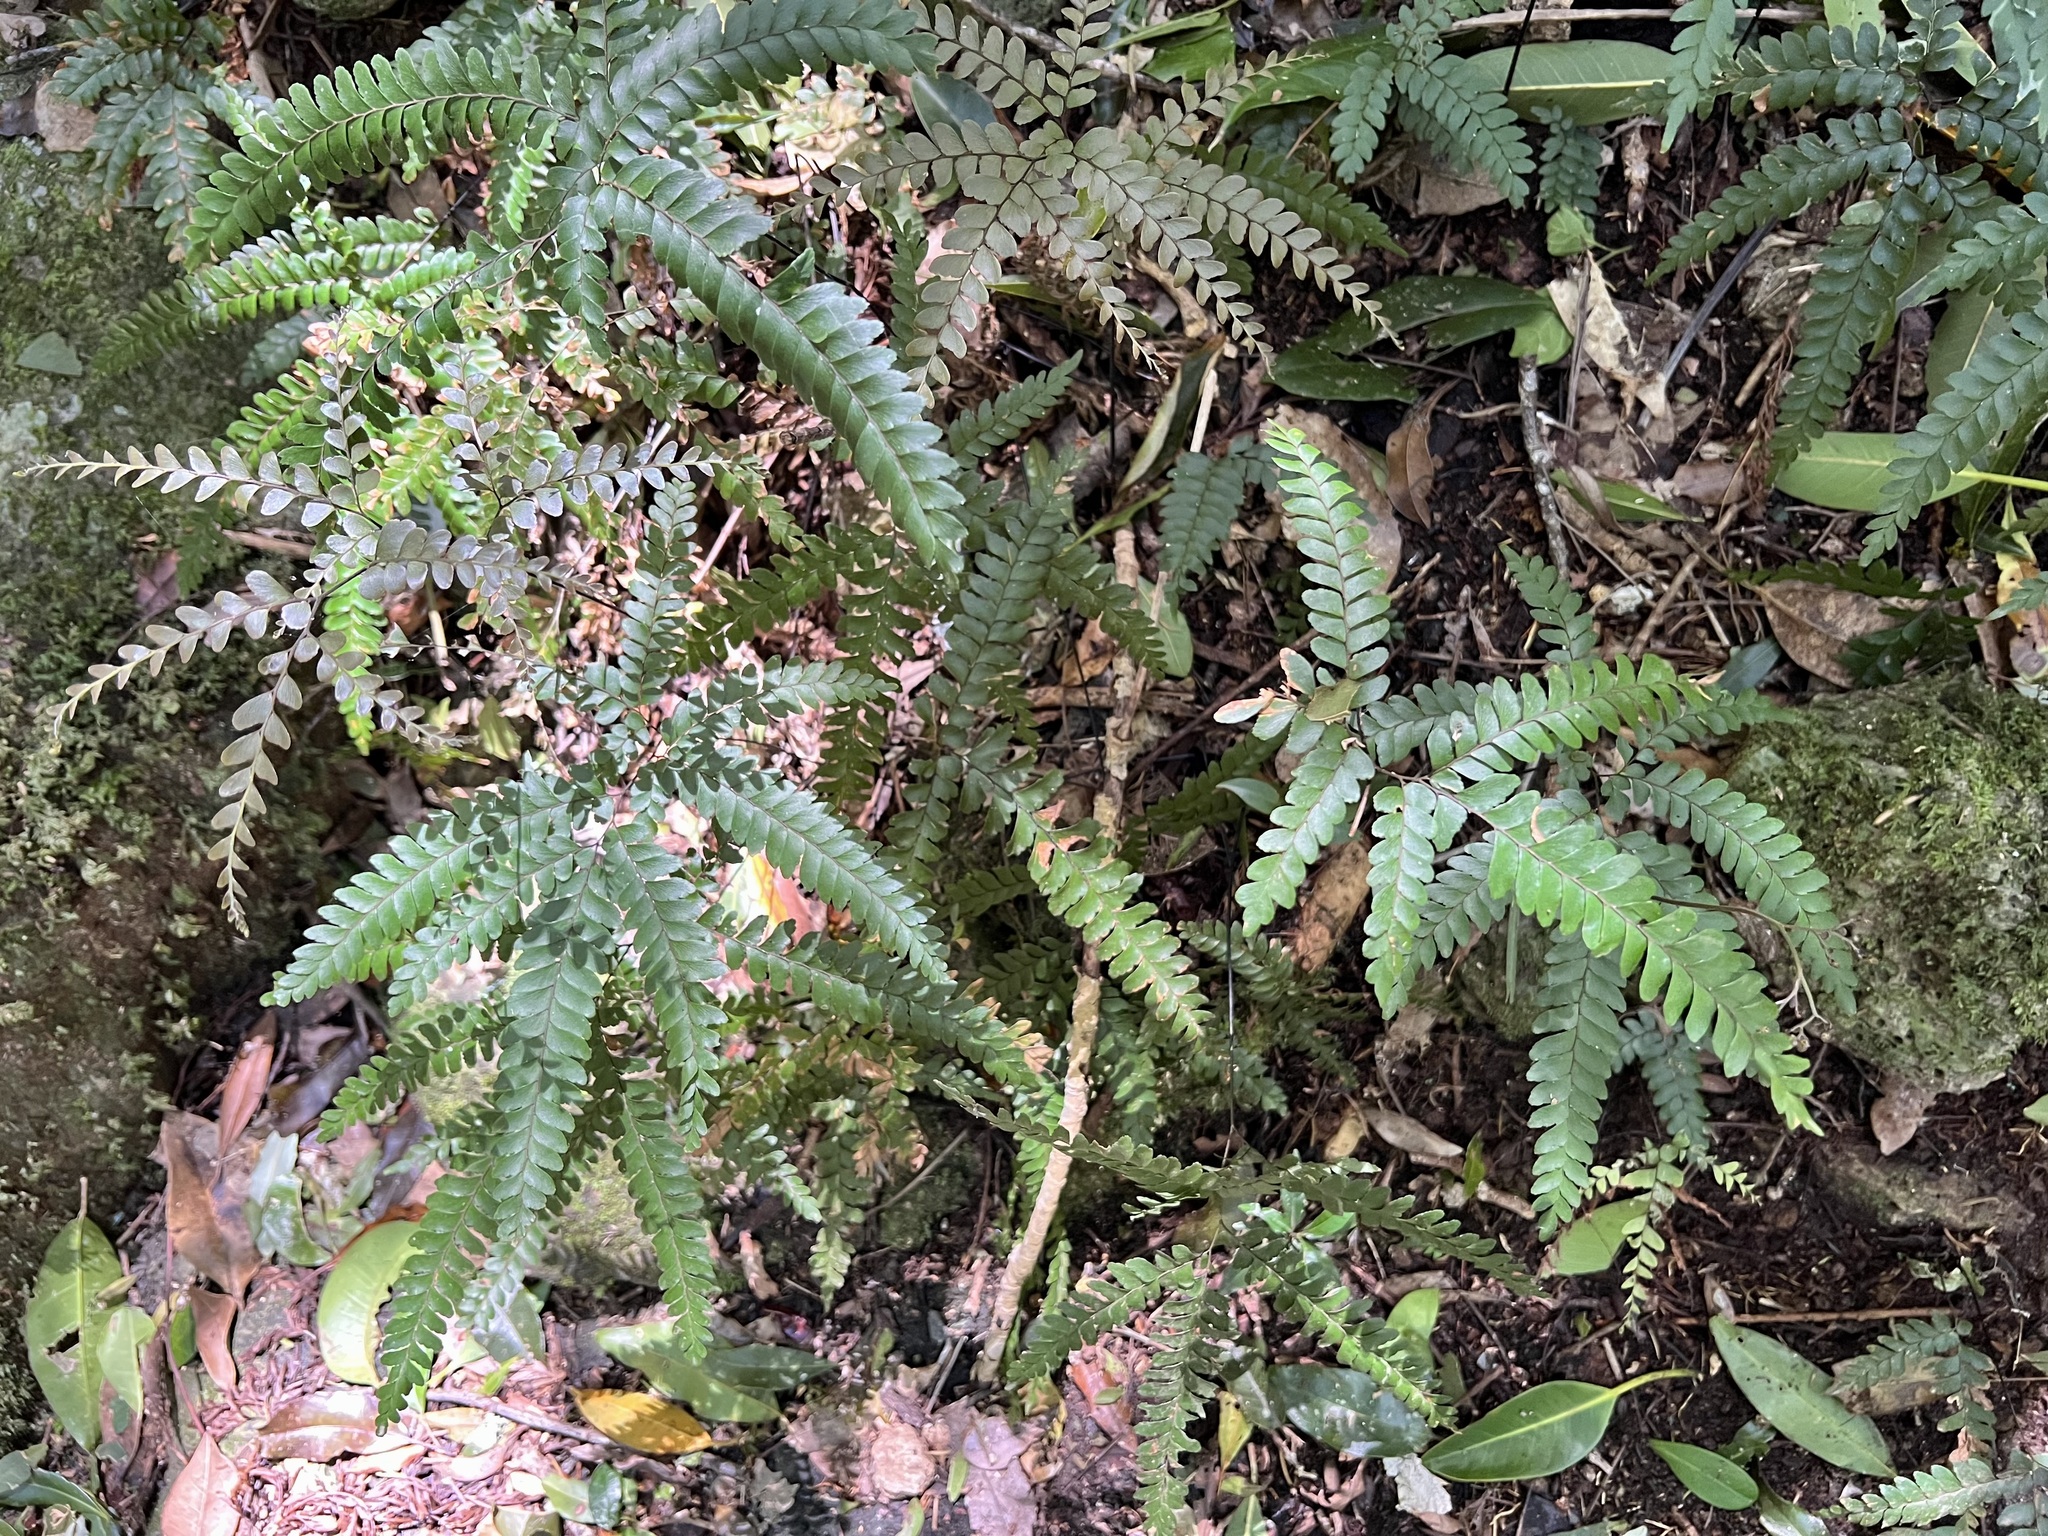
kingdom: Plantae
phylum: Tracheophyta
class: Polypodiopsida
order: Polypodiales
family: Pteridaceae
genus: Adiantum
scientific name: Adiantum silvaticum
